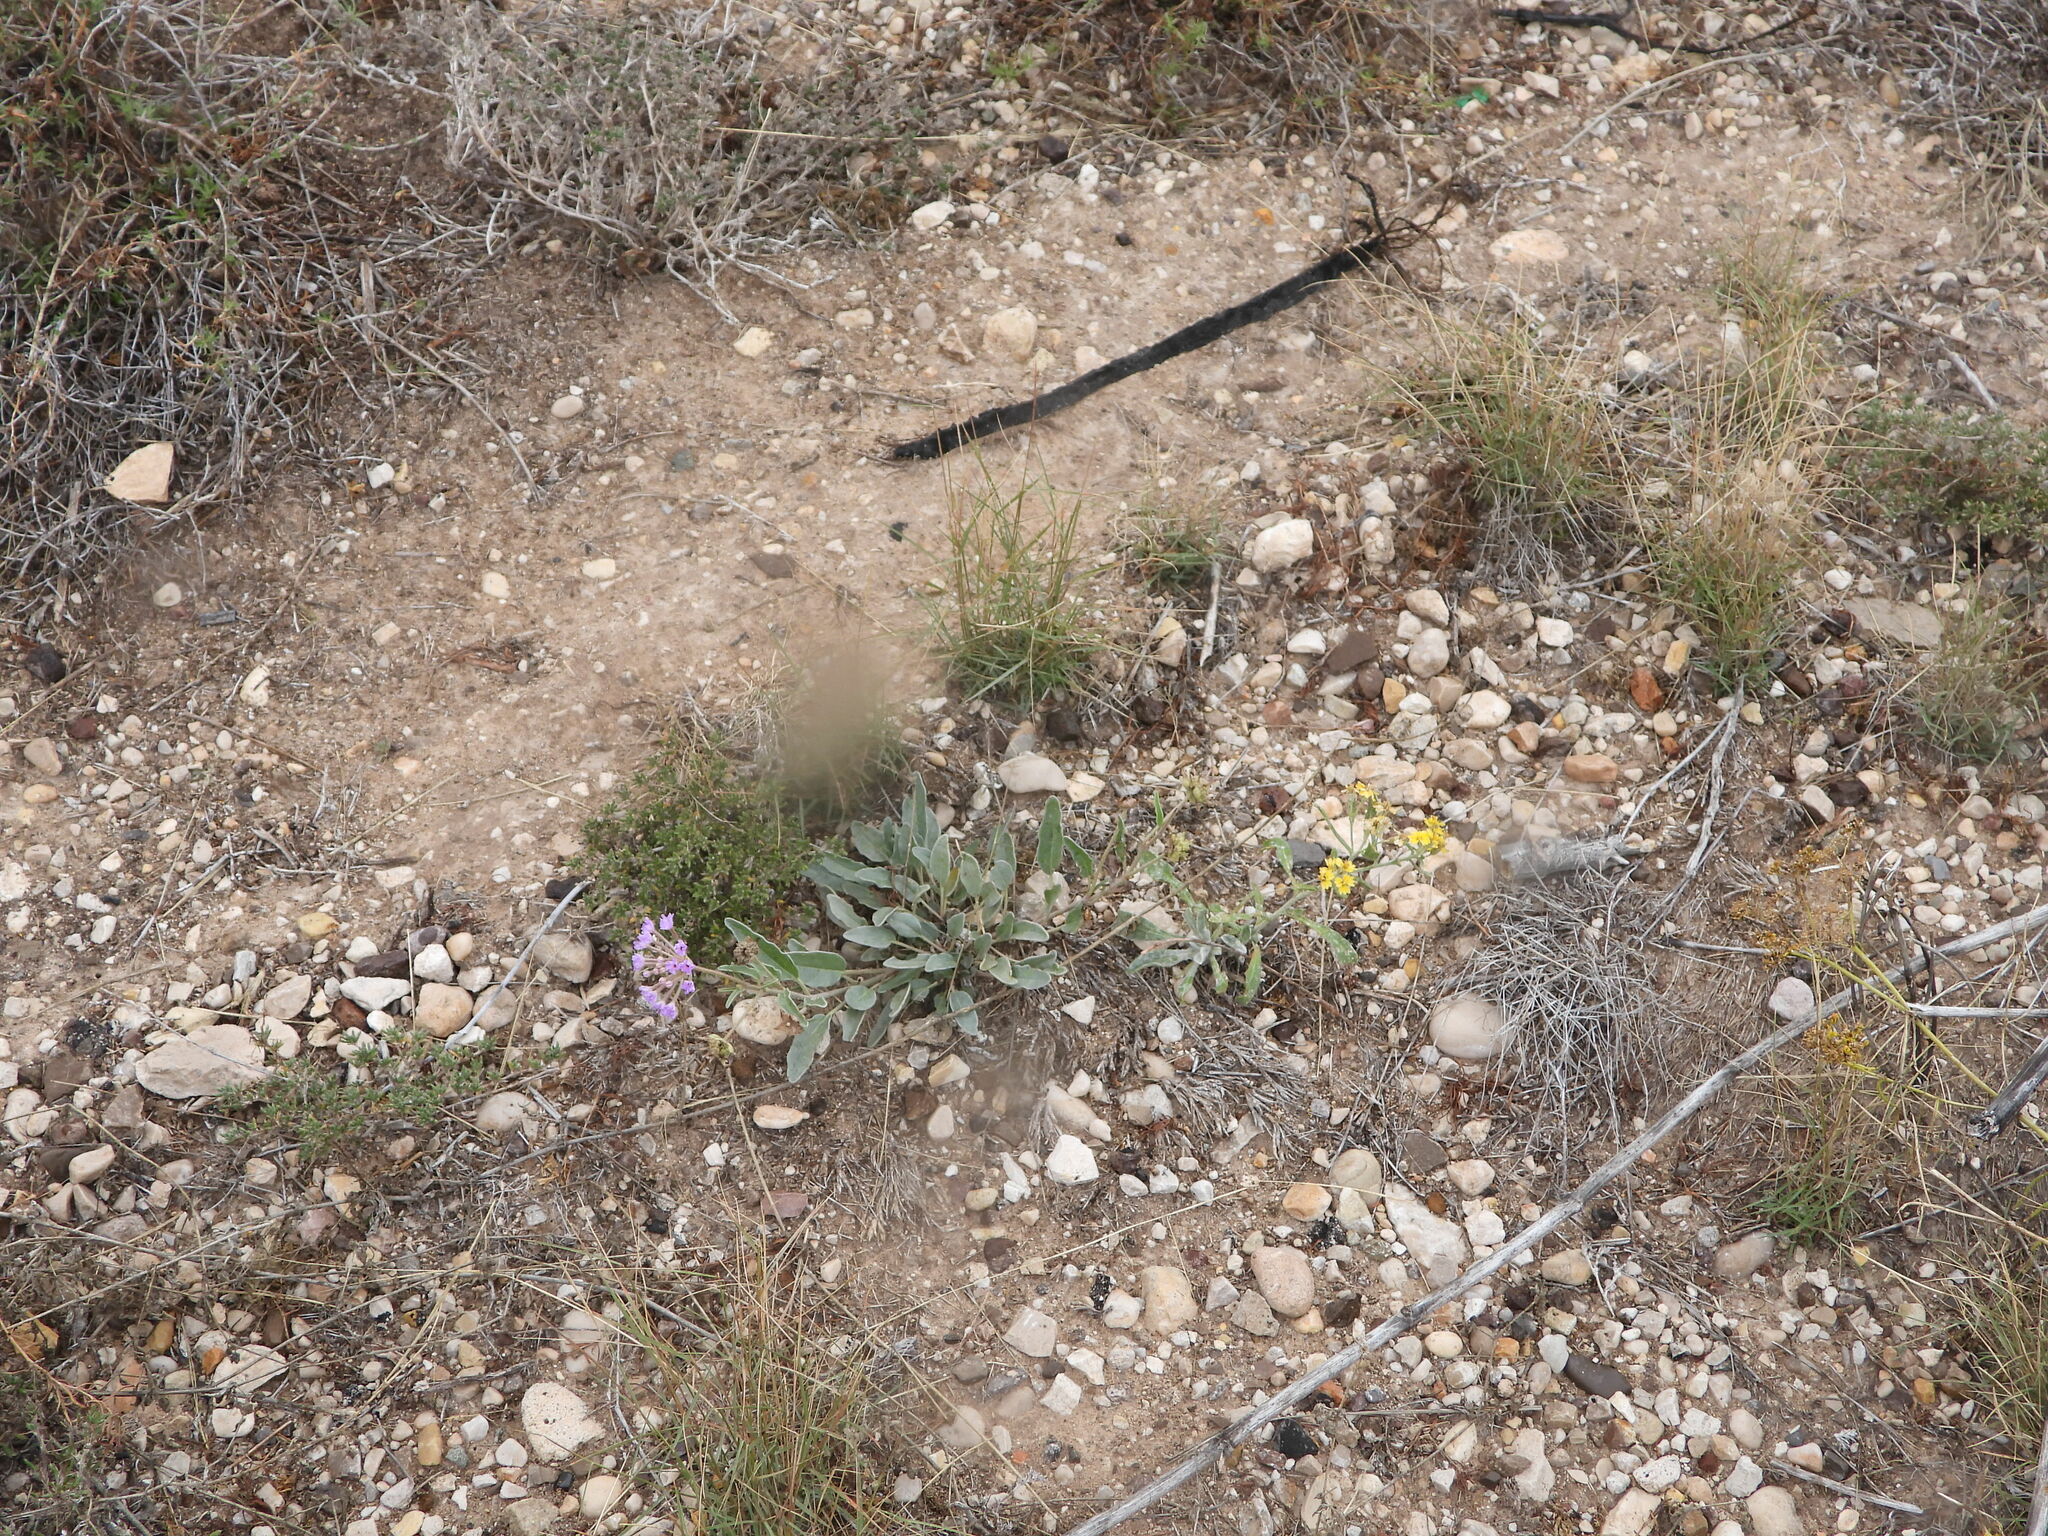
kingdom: Plantae
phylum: Tracheophyta
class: Magnoliopsida
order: Caryophyllales
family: Nyctaginaceae
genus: Abronia
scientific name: Abronia carletonii
